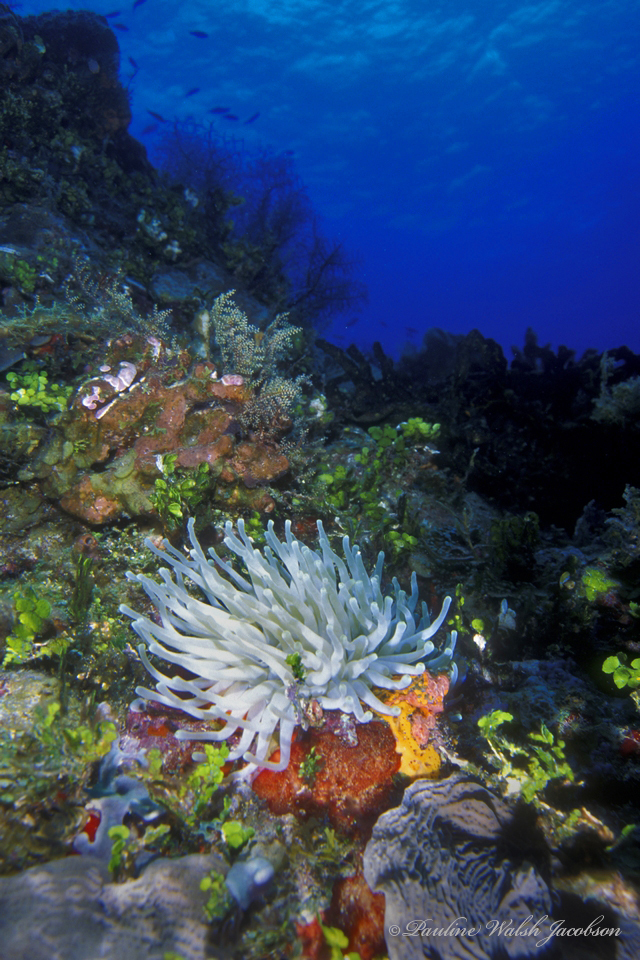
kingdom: Animalia
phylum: Cnidaria
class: Anthozoa
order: Actiniaria
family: Actiniidae
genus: Condylactis
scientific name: Condylactis gigantea
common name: Giant caribbean anemone
